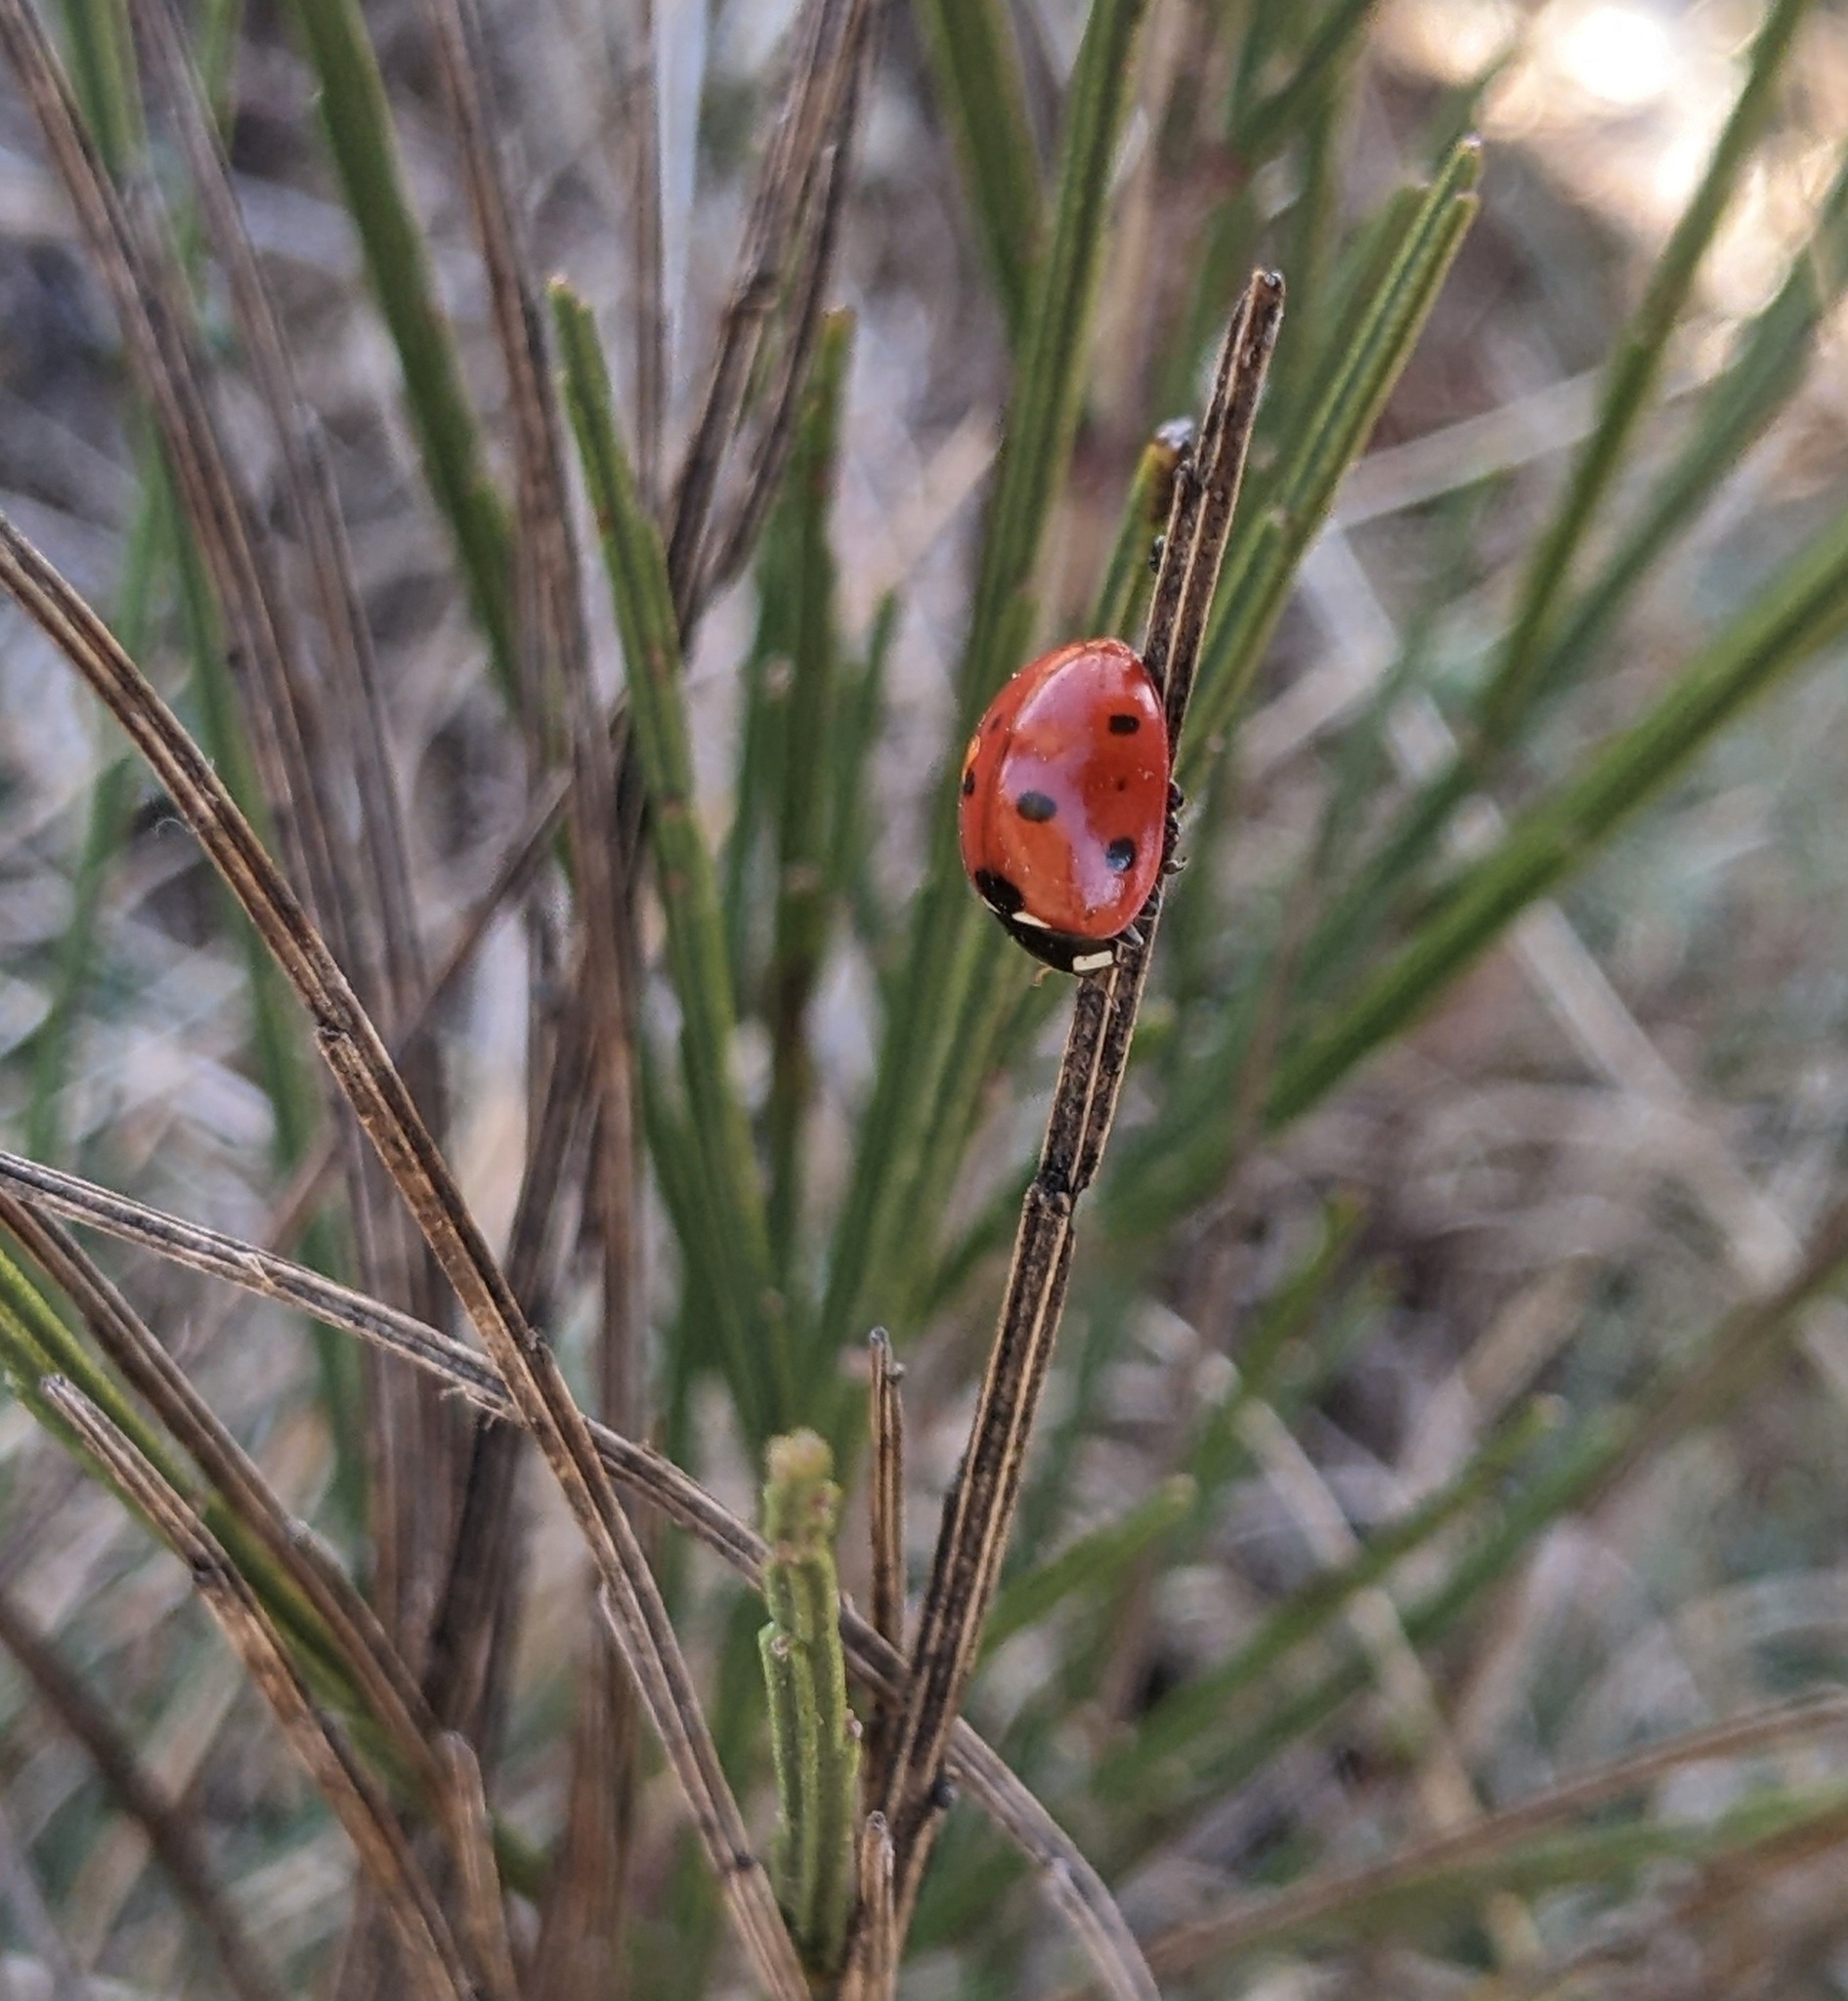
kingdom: Animalia
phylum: Arthropoda
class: Insecta
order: Coleoptera
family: Coccinellidae
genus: Coccinella
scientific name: Coccinella septempunctata
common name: Sevenspotted lady beetle
